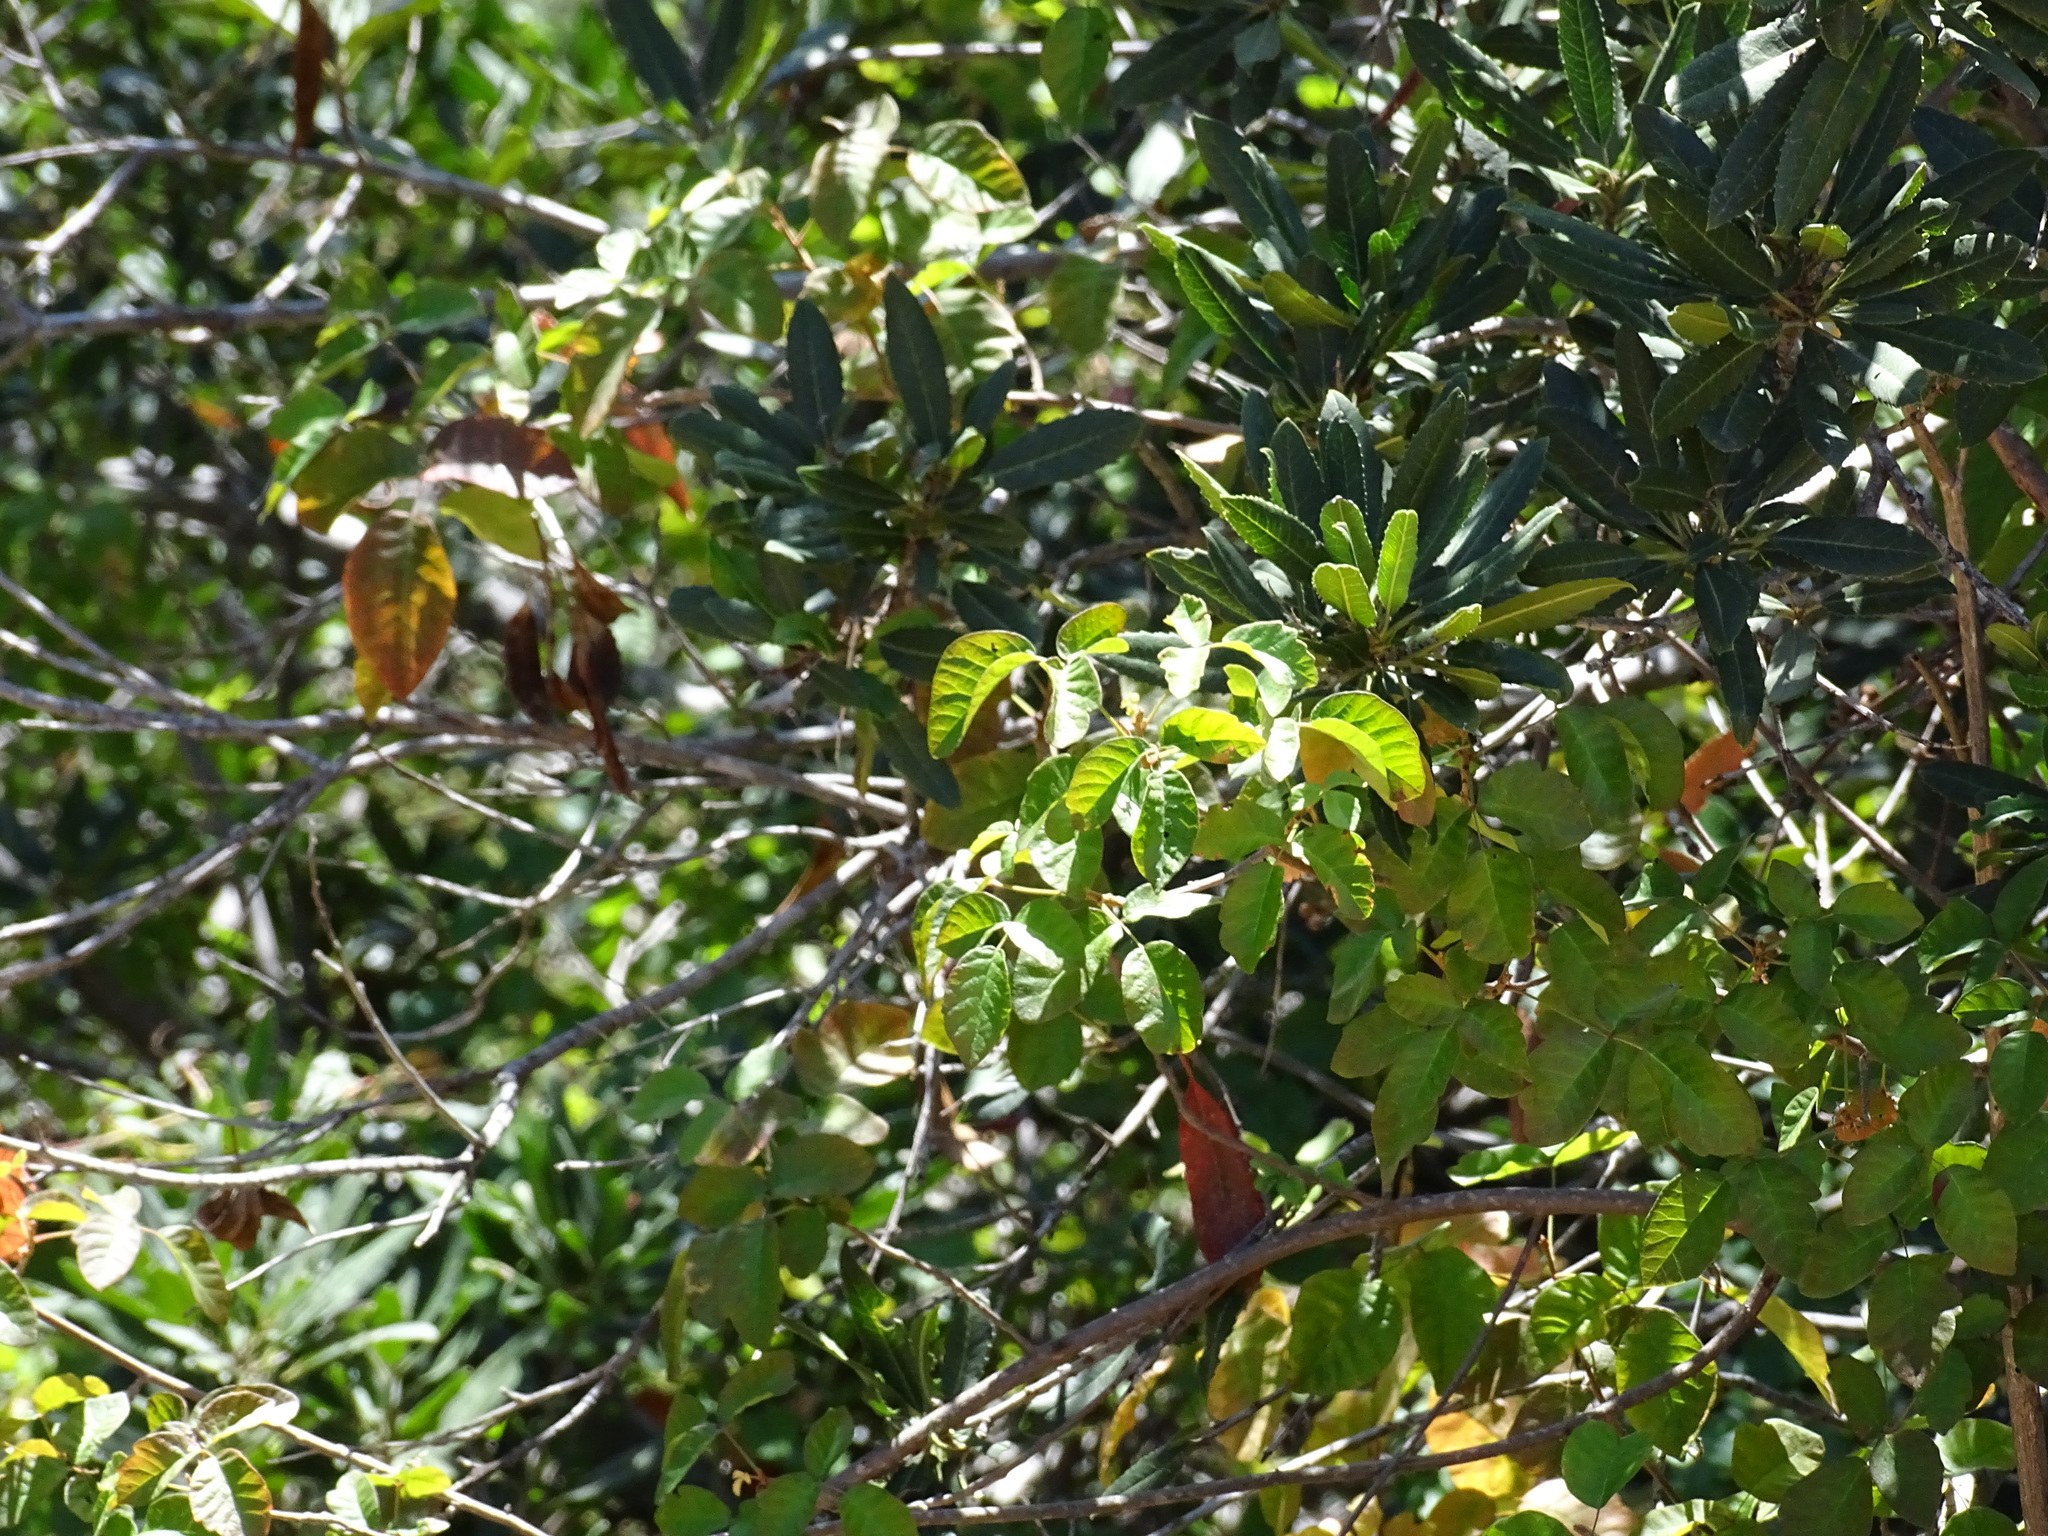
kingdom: Plantae
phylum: Tracheophyta
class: Magnoliopsida
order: Sapindales
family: Anacardiaceae
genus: Toxicodendron
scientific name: Toxicodendron diversilobum
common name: Pacific poison-oak
